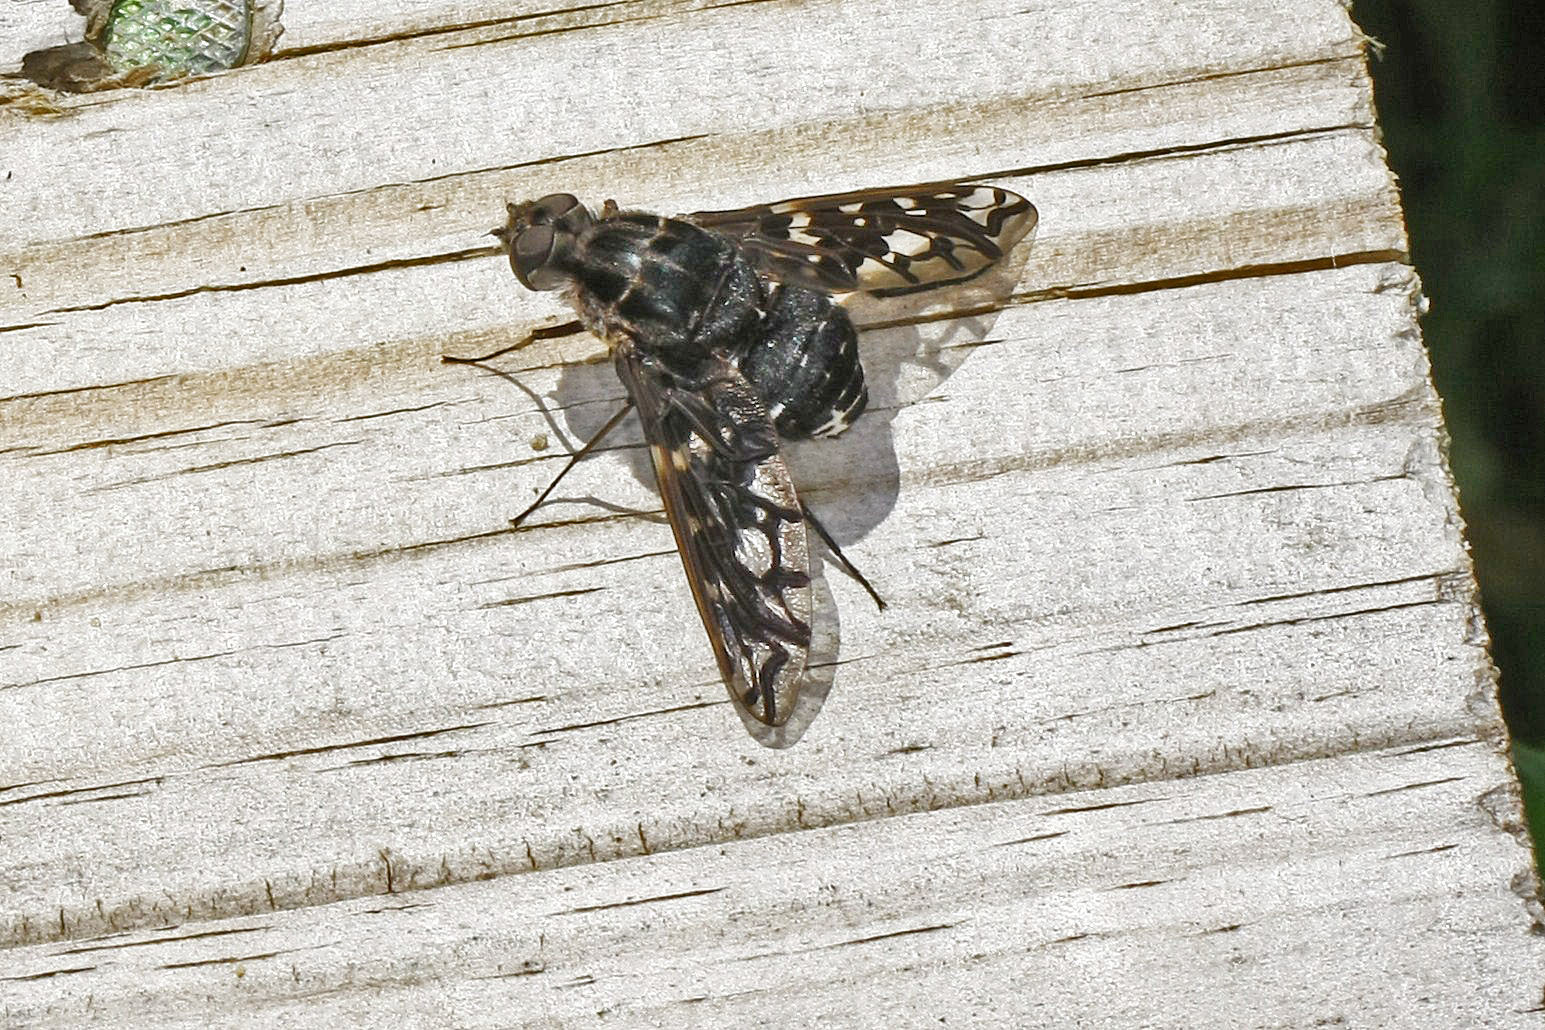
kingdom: Animalia
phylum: Arthropoda
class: Insecta
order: Diptera
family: Bombyliidae
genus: Xenox
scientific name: Xenox tigrinus
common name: Tiger bee fly
